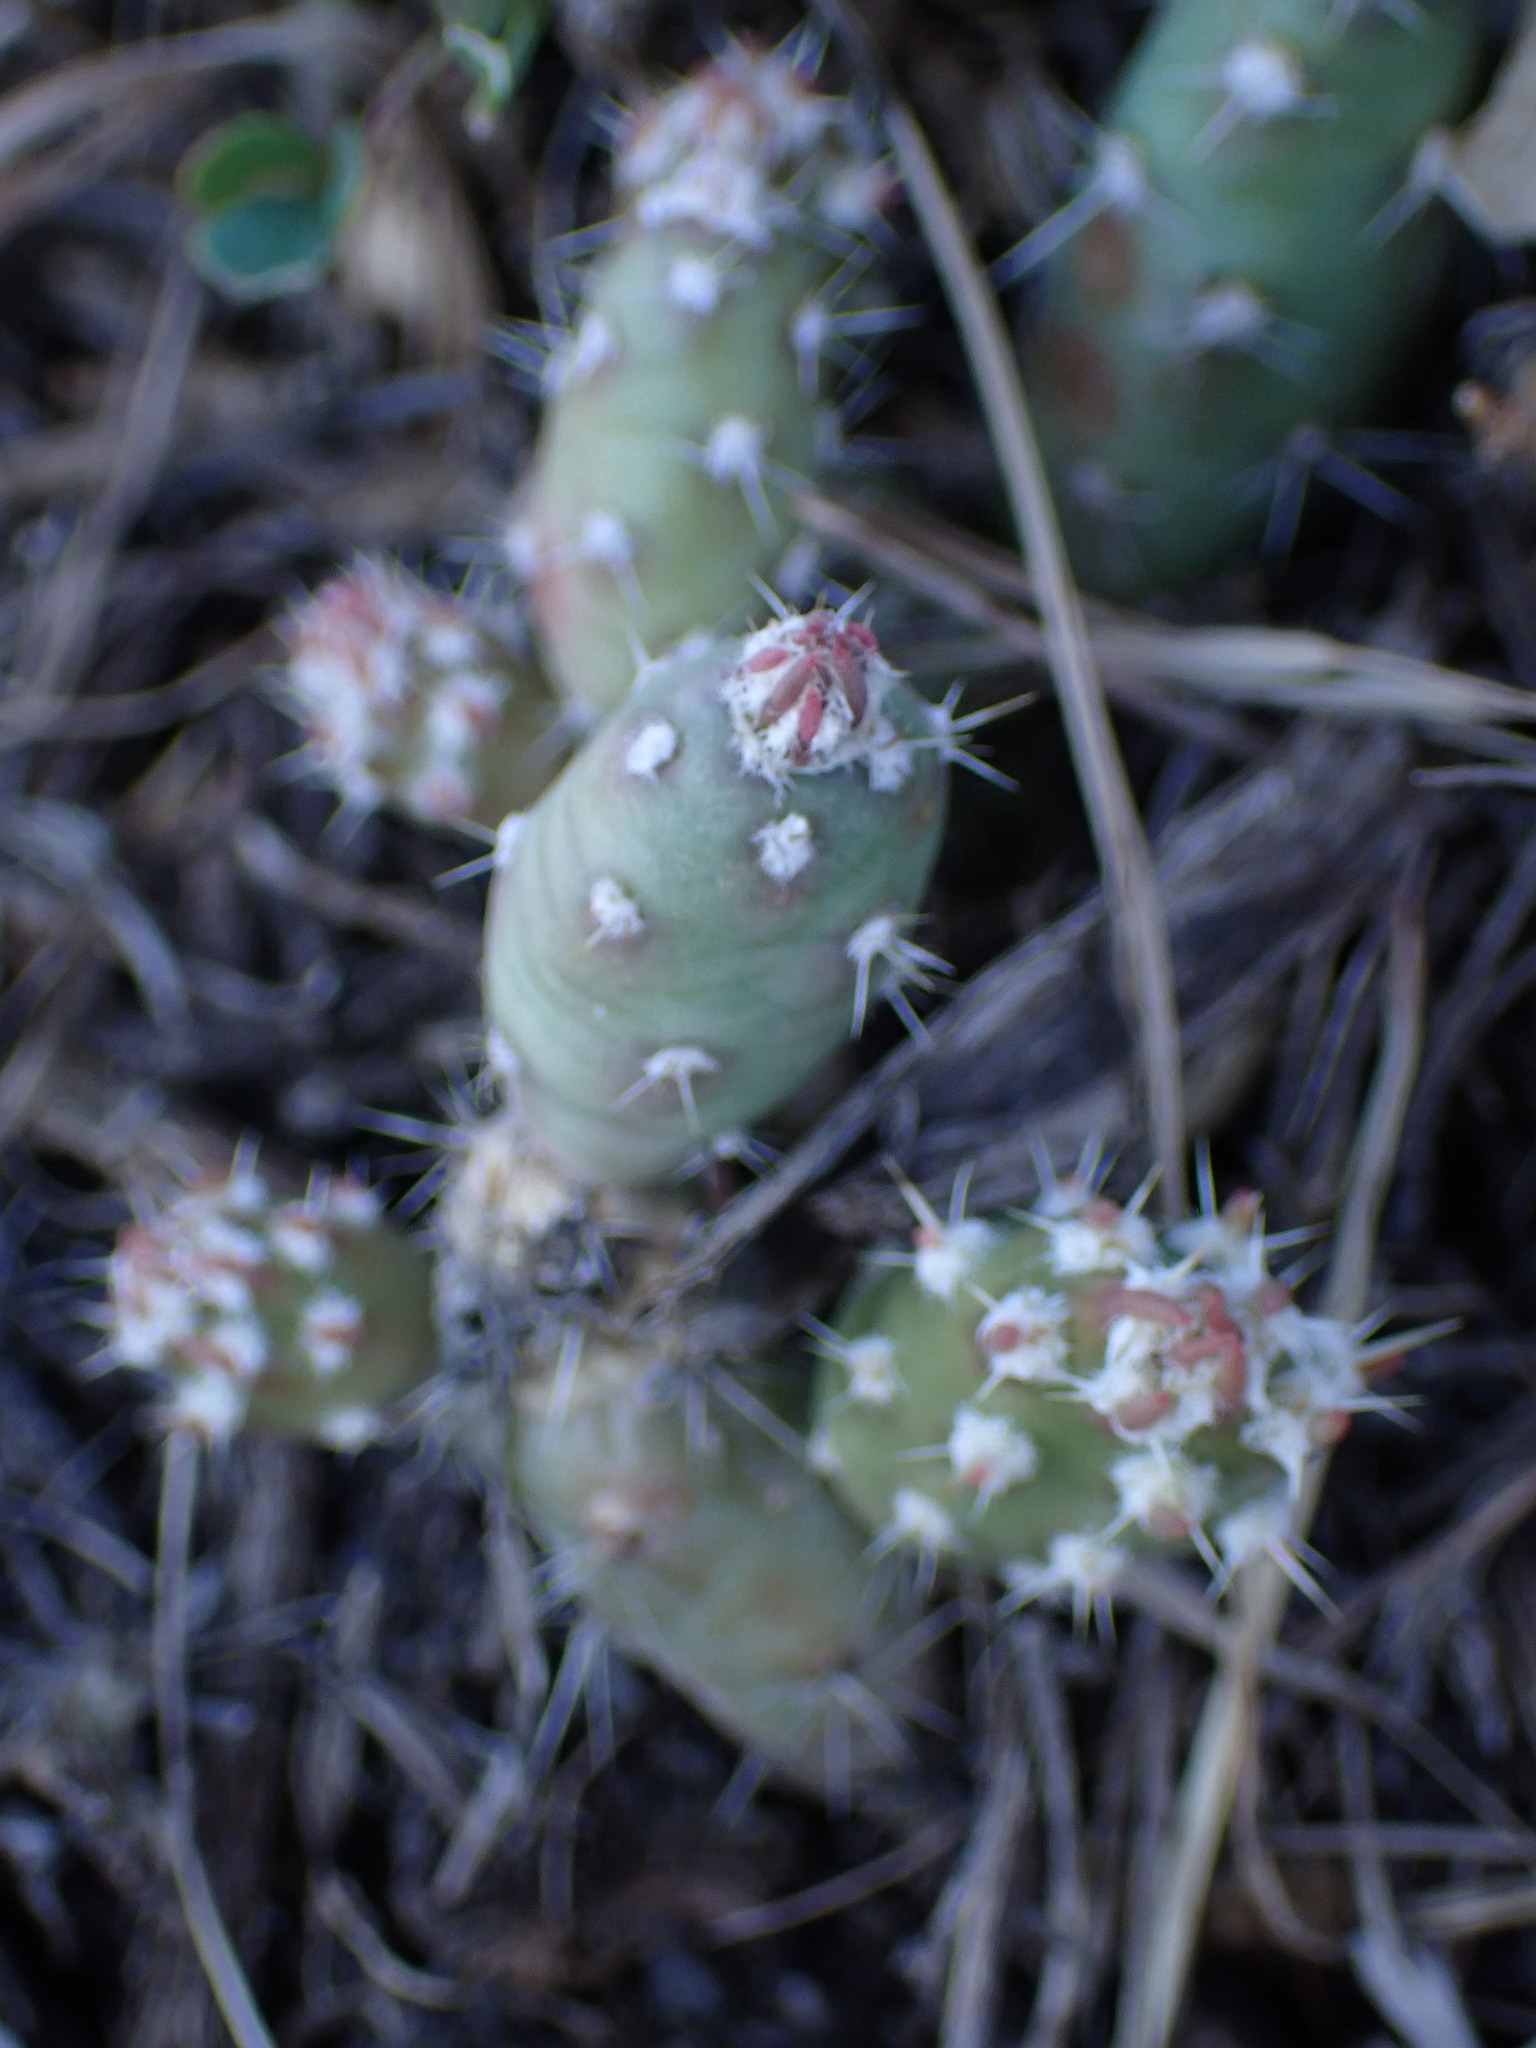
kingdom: Plantae
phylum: Tracheophyta
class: Magnoliopsida
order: Caryophyllales
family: Cactaceae
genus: Opuntia
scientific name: Opuntia fragilis
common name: Brittle cactus
